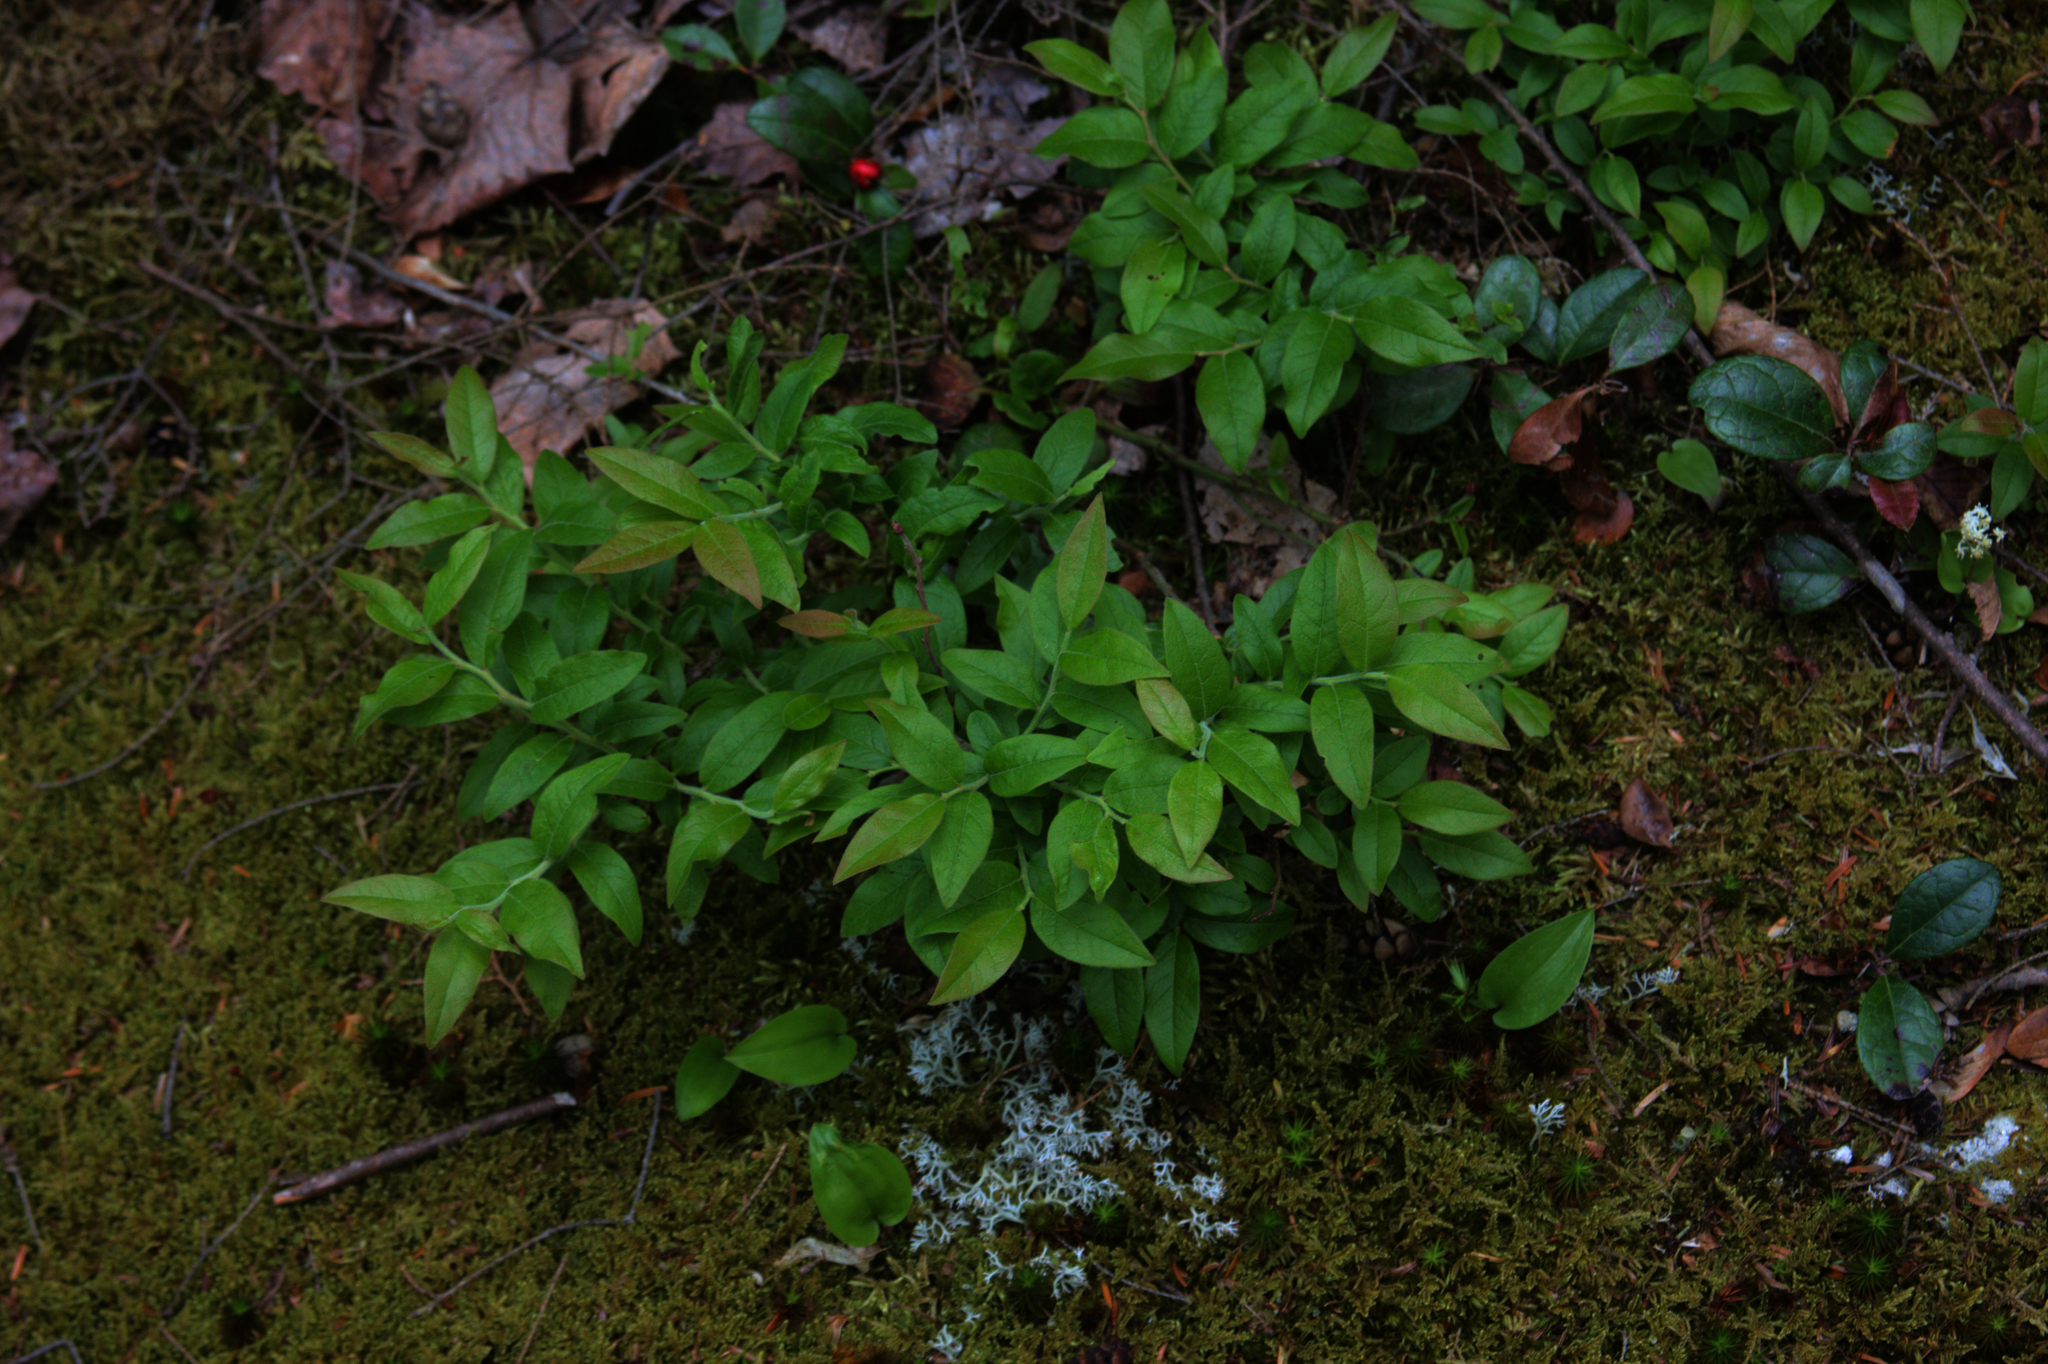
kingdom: Plantae
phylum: Tracheophyta
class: Liliopsida
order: Asparagales
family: Asparagaceae
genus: Maianthemum
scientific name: Maianthemum canadense
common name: False lily-of-the-valley
